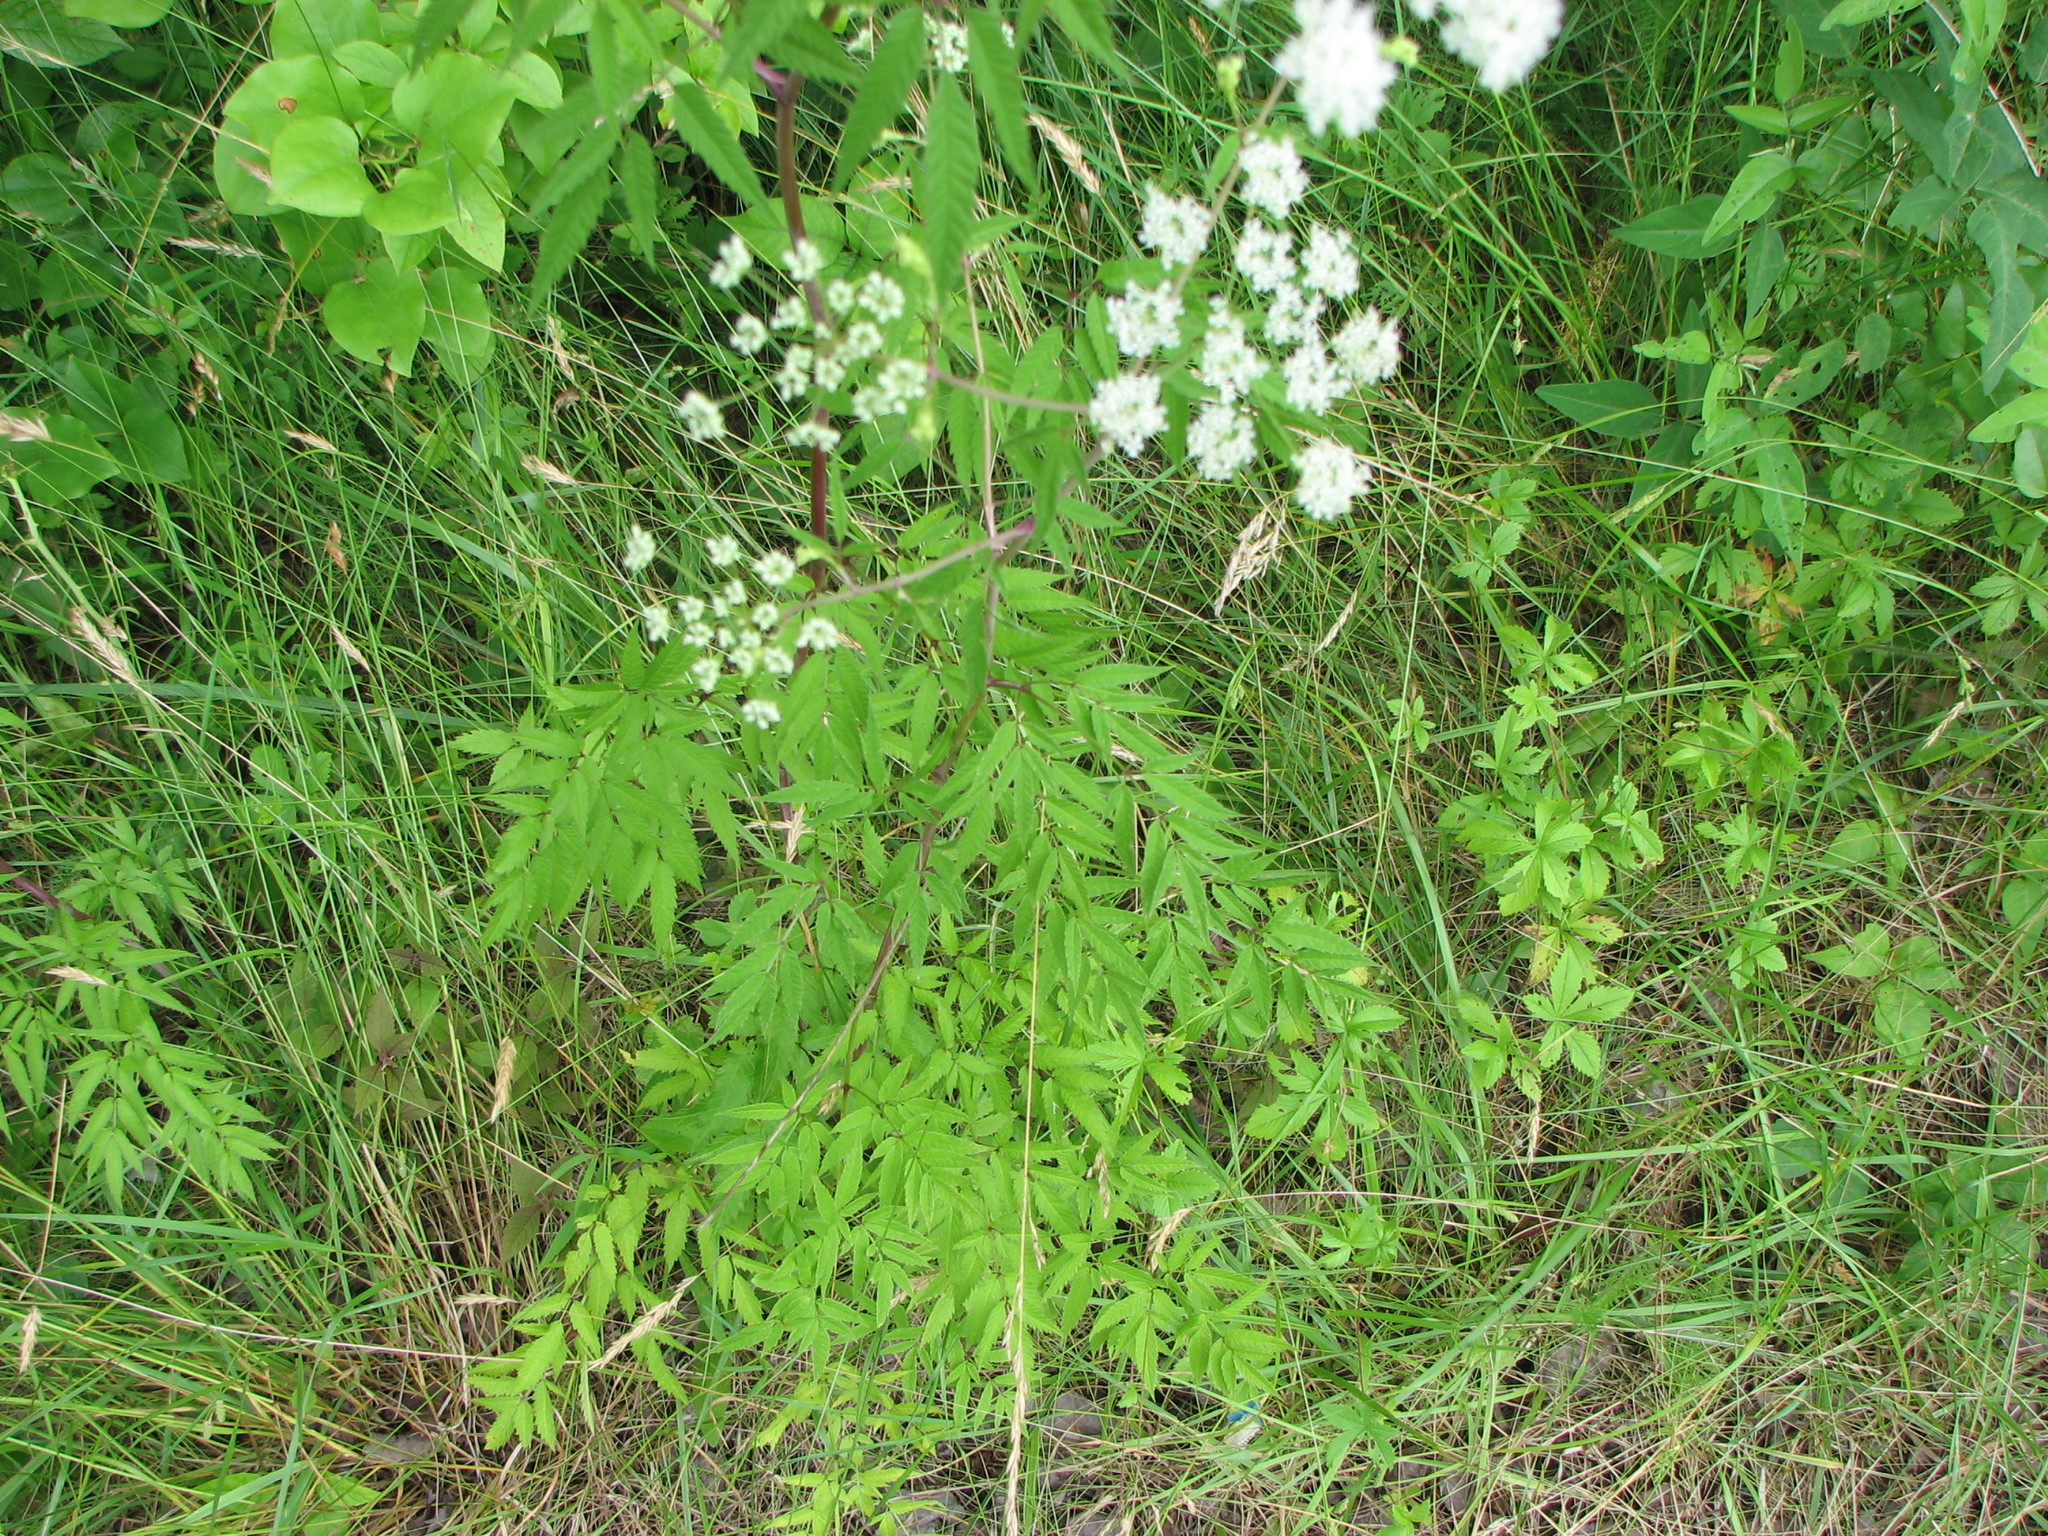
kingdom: Plantae
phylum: Tracheophyta
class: Magnoliopsida
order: Apiales
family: Apiaceae
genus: Cicuta
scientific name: Cicuta maculata
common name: Spotted cowbane
